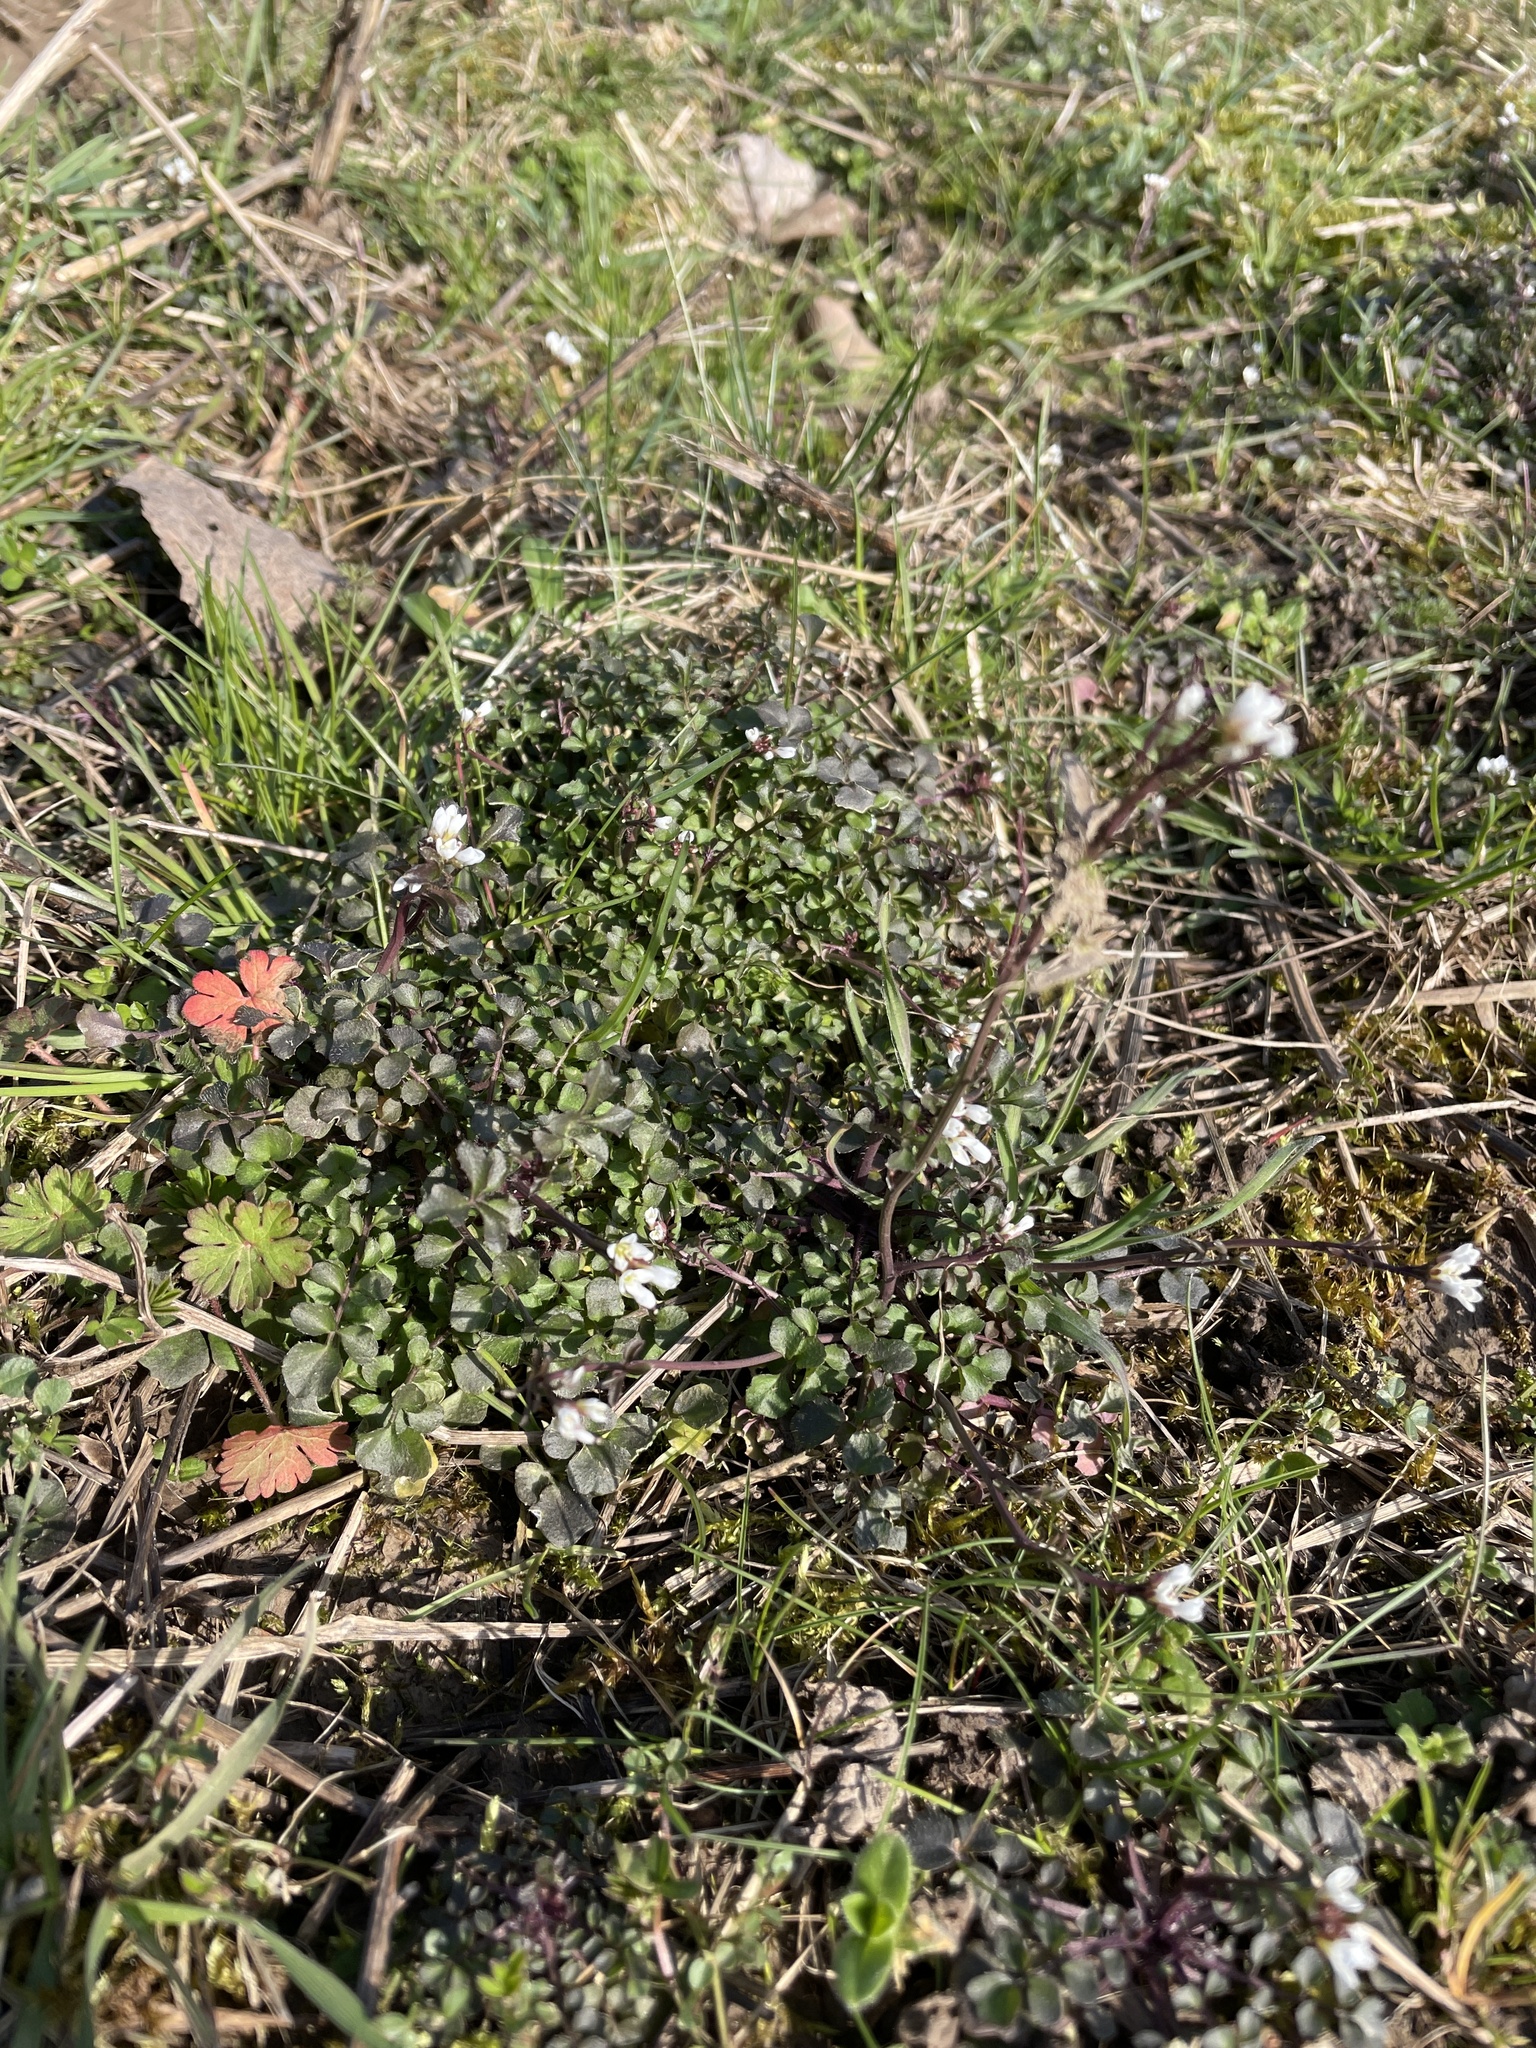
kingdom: Plantae
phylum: Tracheophyta
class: Magnoliopsida
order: Brassicales
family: Brassicaceae
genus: Cardamine
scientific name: Cardamine hirsuta
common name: Hairy bittercress
